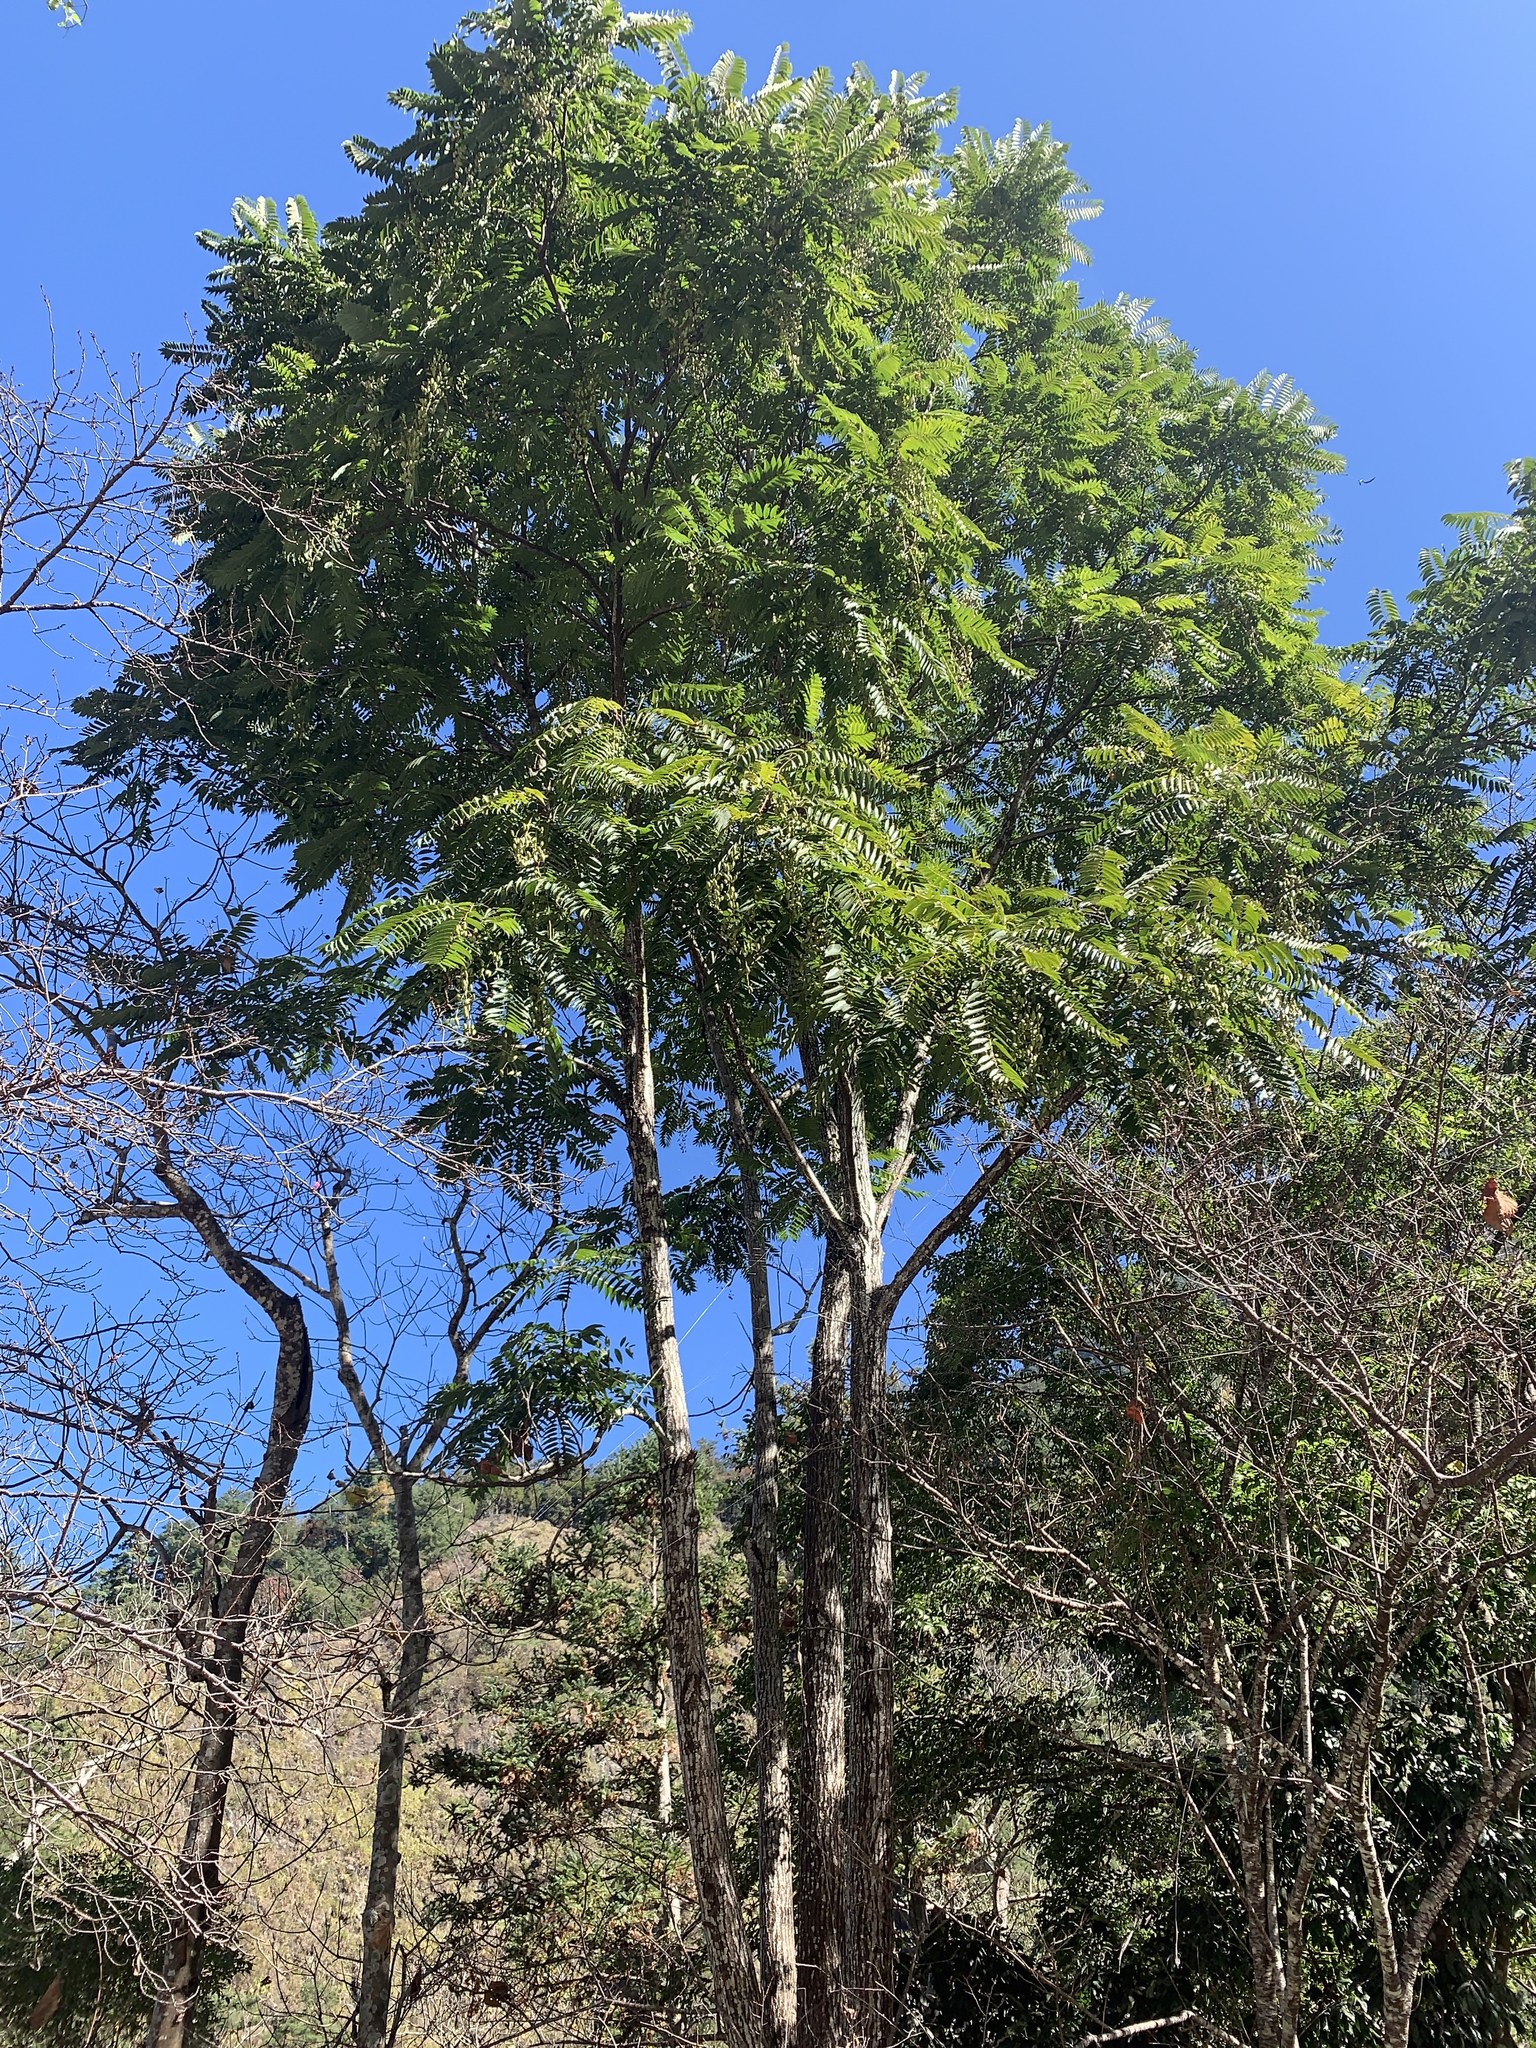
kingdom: Plantae
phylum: Tracheophyta
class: Magnoliopsida
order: Sapindales
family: Meliaceae
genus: Toona
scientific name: Toona sinensis
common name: Red toon
